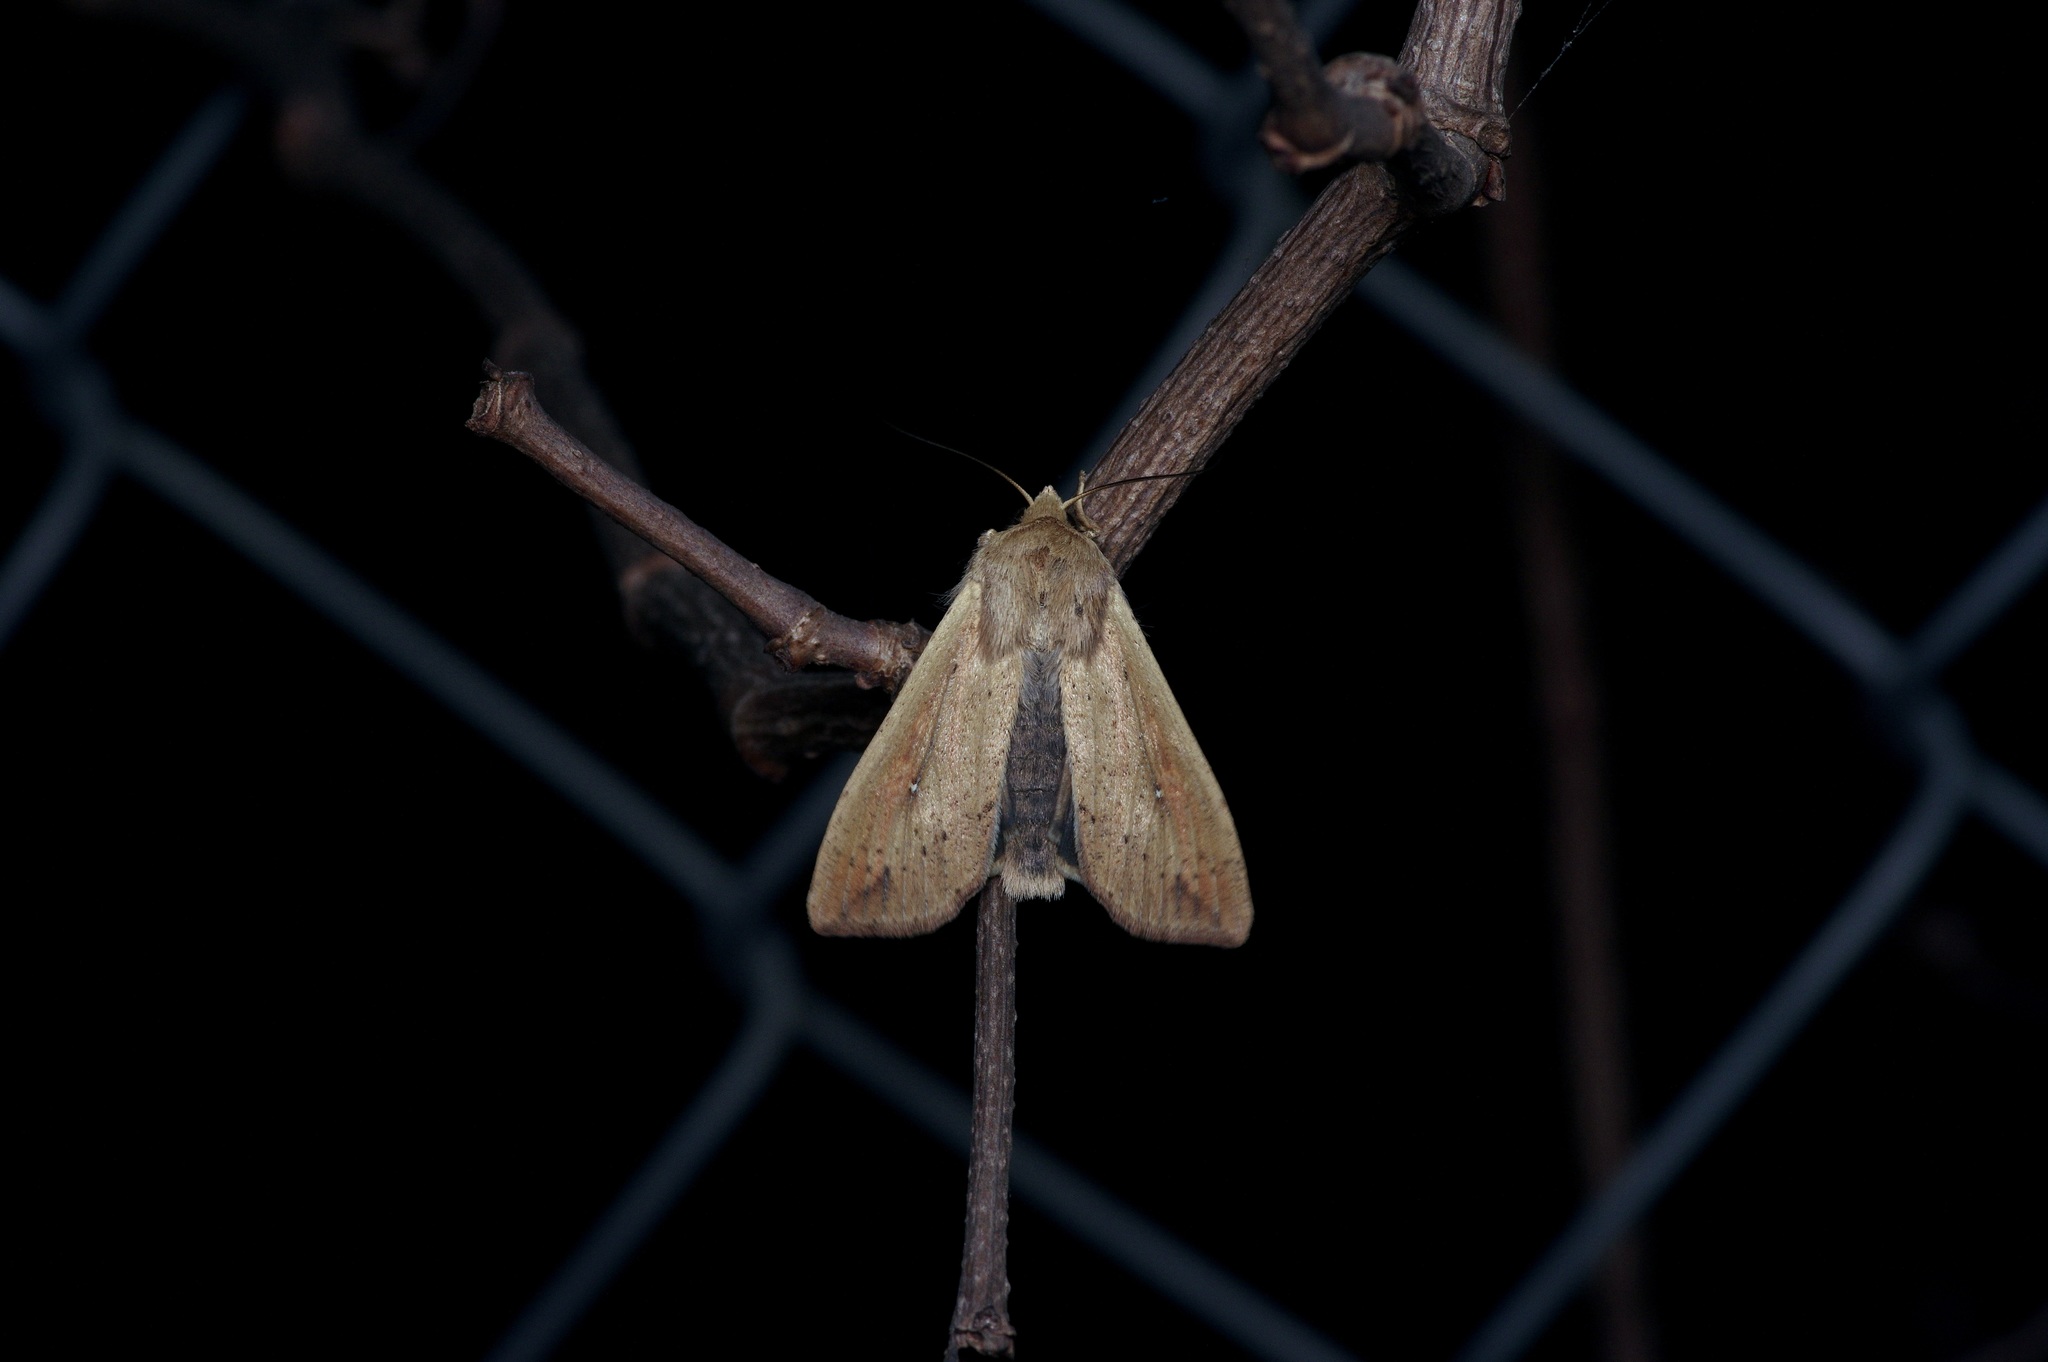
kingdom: Animalia
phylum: Arthropoda
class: Insecta
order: Lepidoptera
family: Noctuidae
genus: Mythimna
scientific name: Mythimna unipuncta
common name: White-speck
